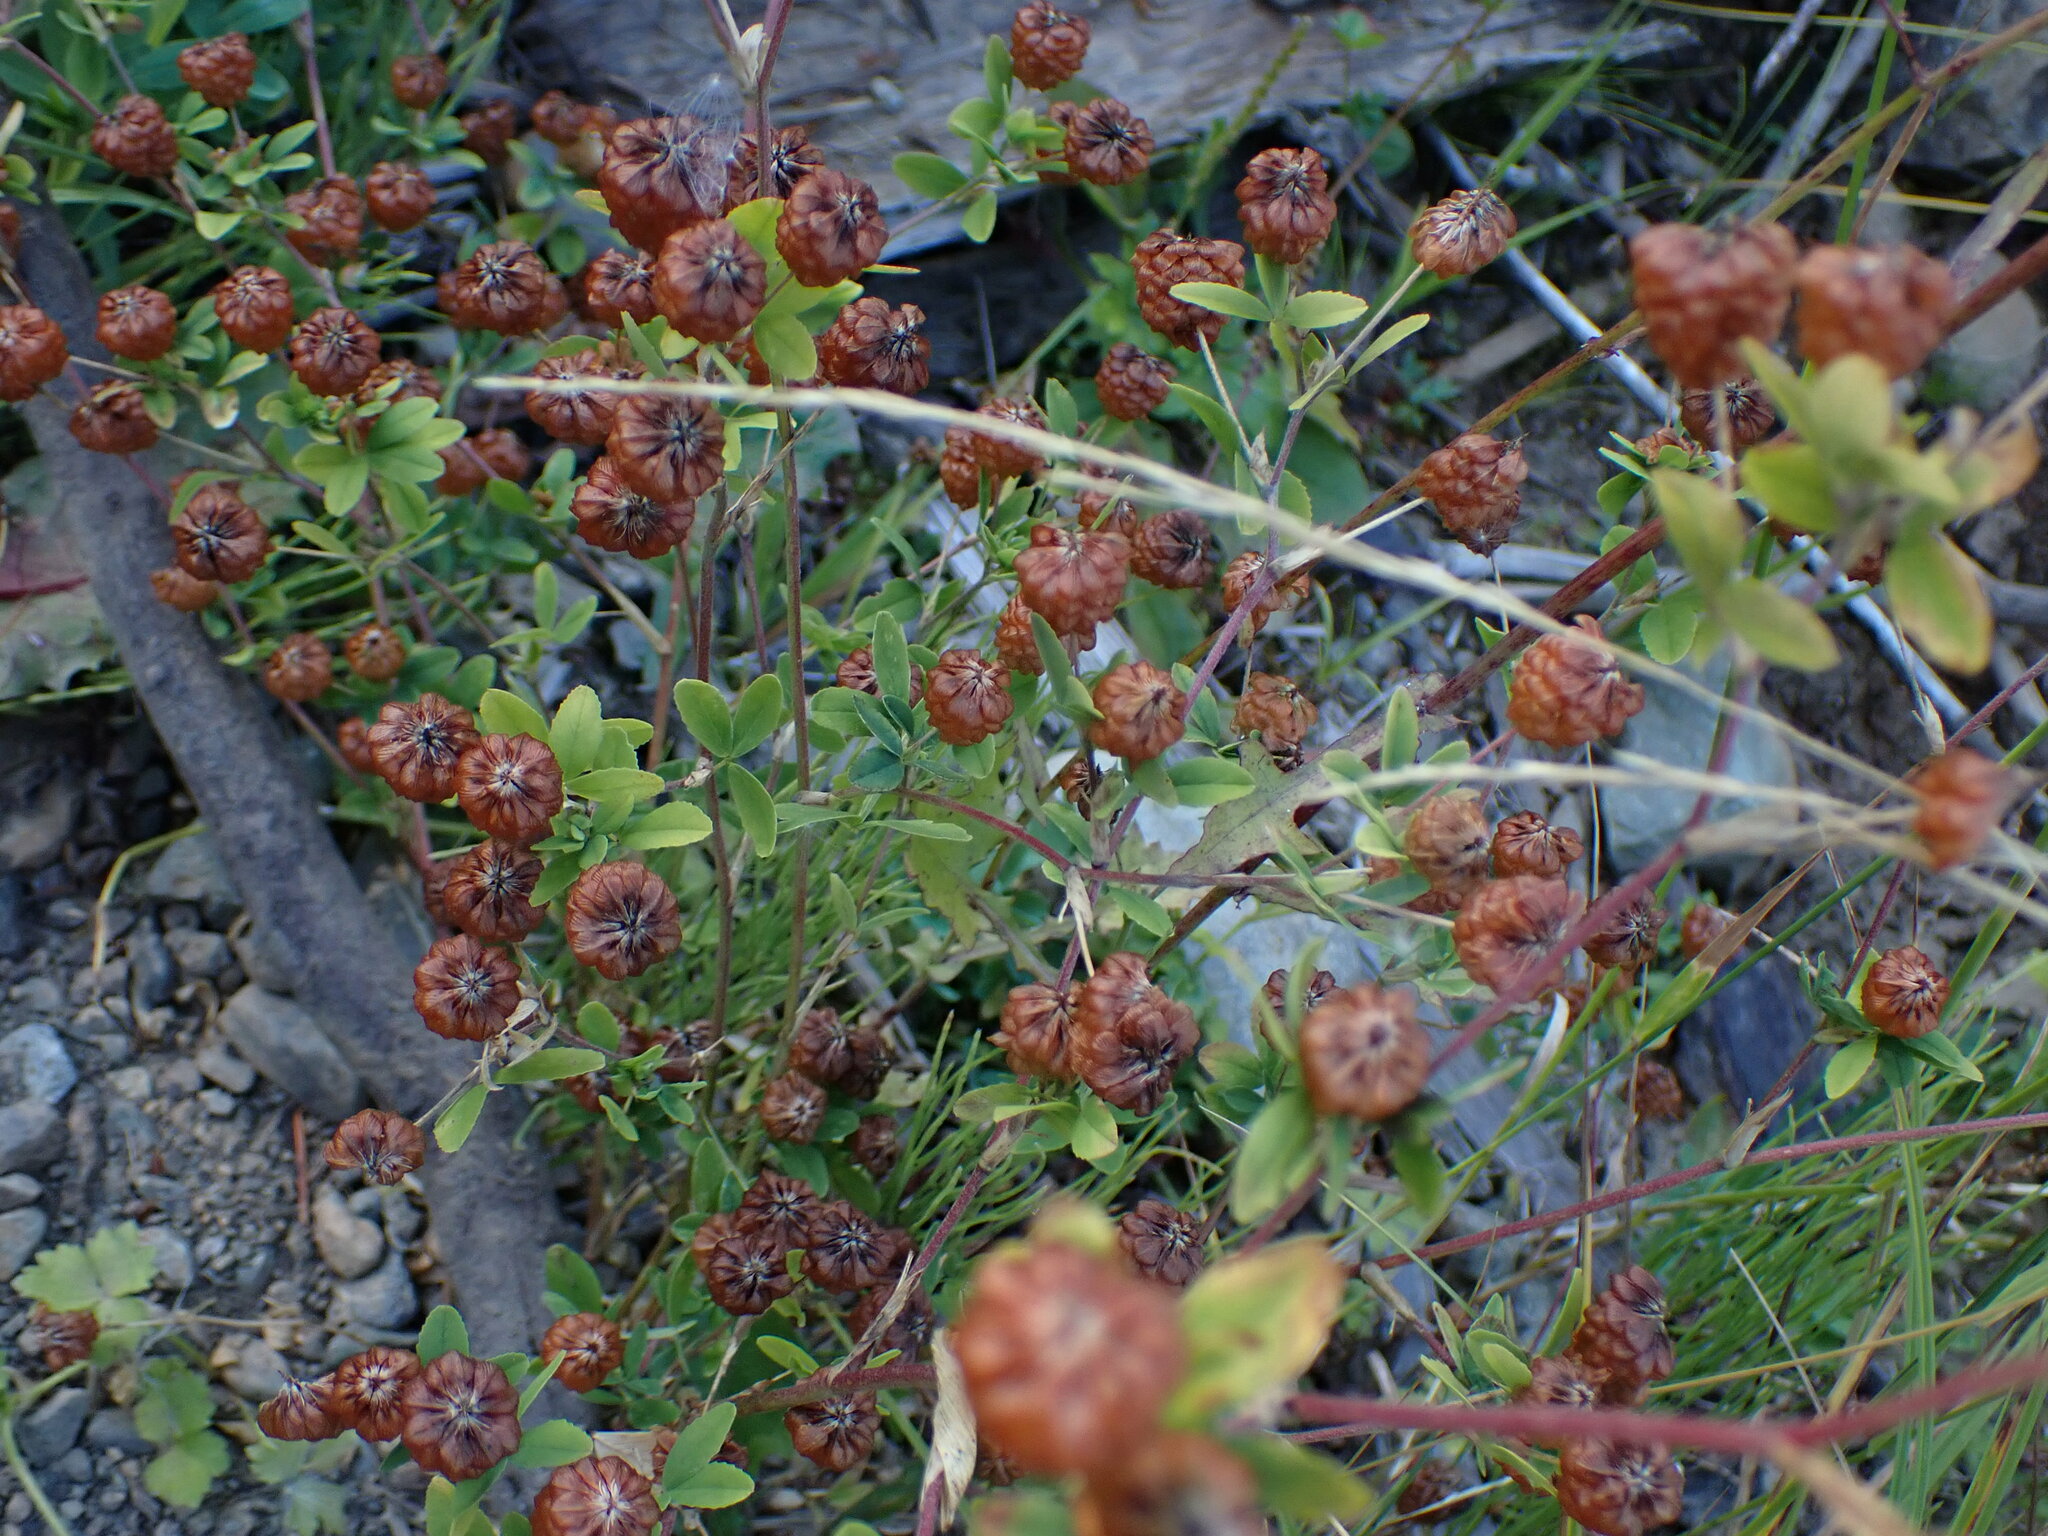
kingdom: Plantae
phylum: Tracheophyta
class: Magnoliopsida
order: Fabales
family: Fabaceae
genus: Trifolium
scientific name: Trifolium aureum
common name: Golden clover
